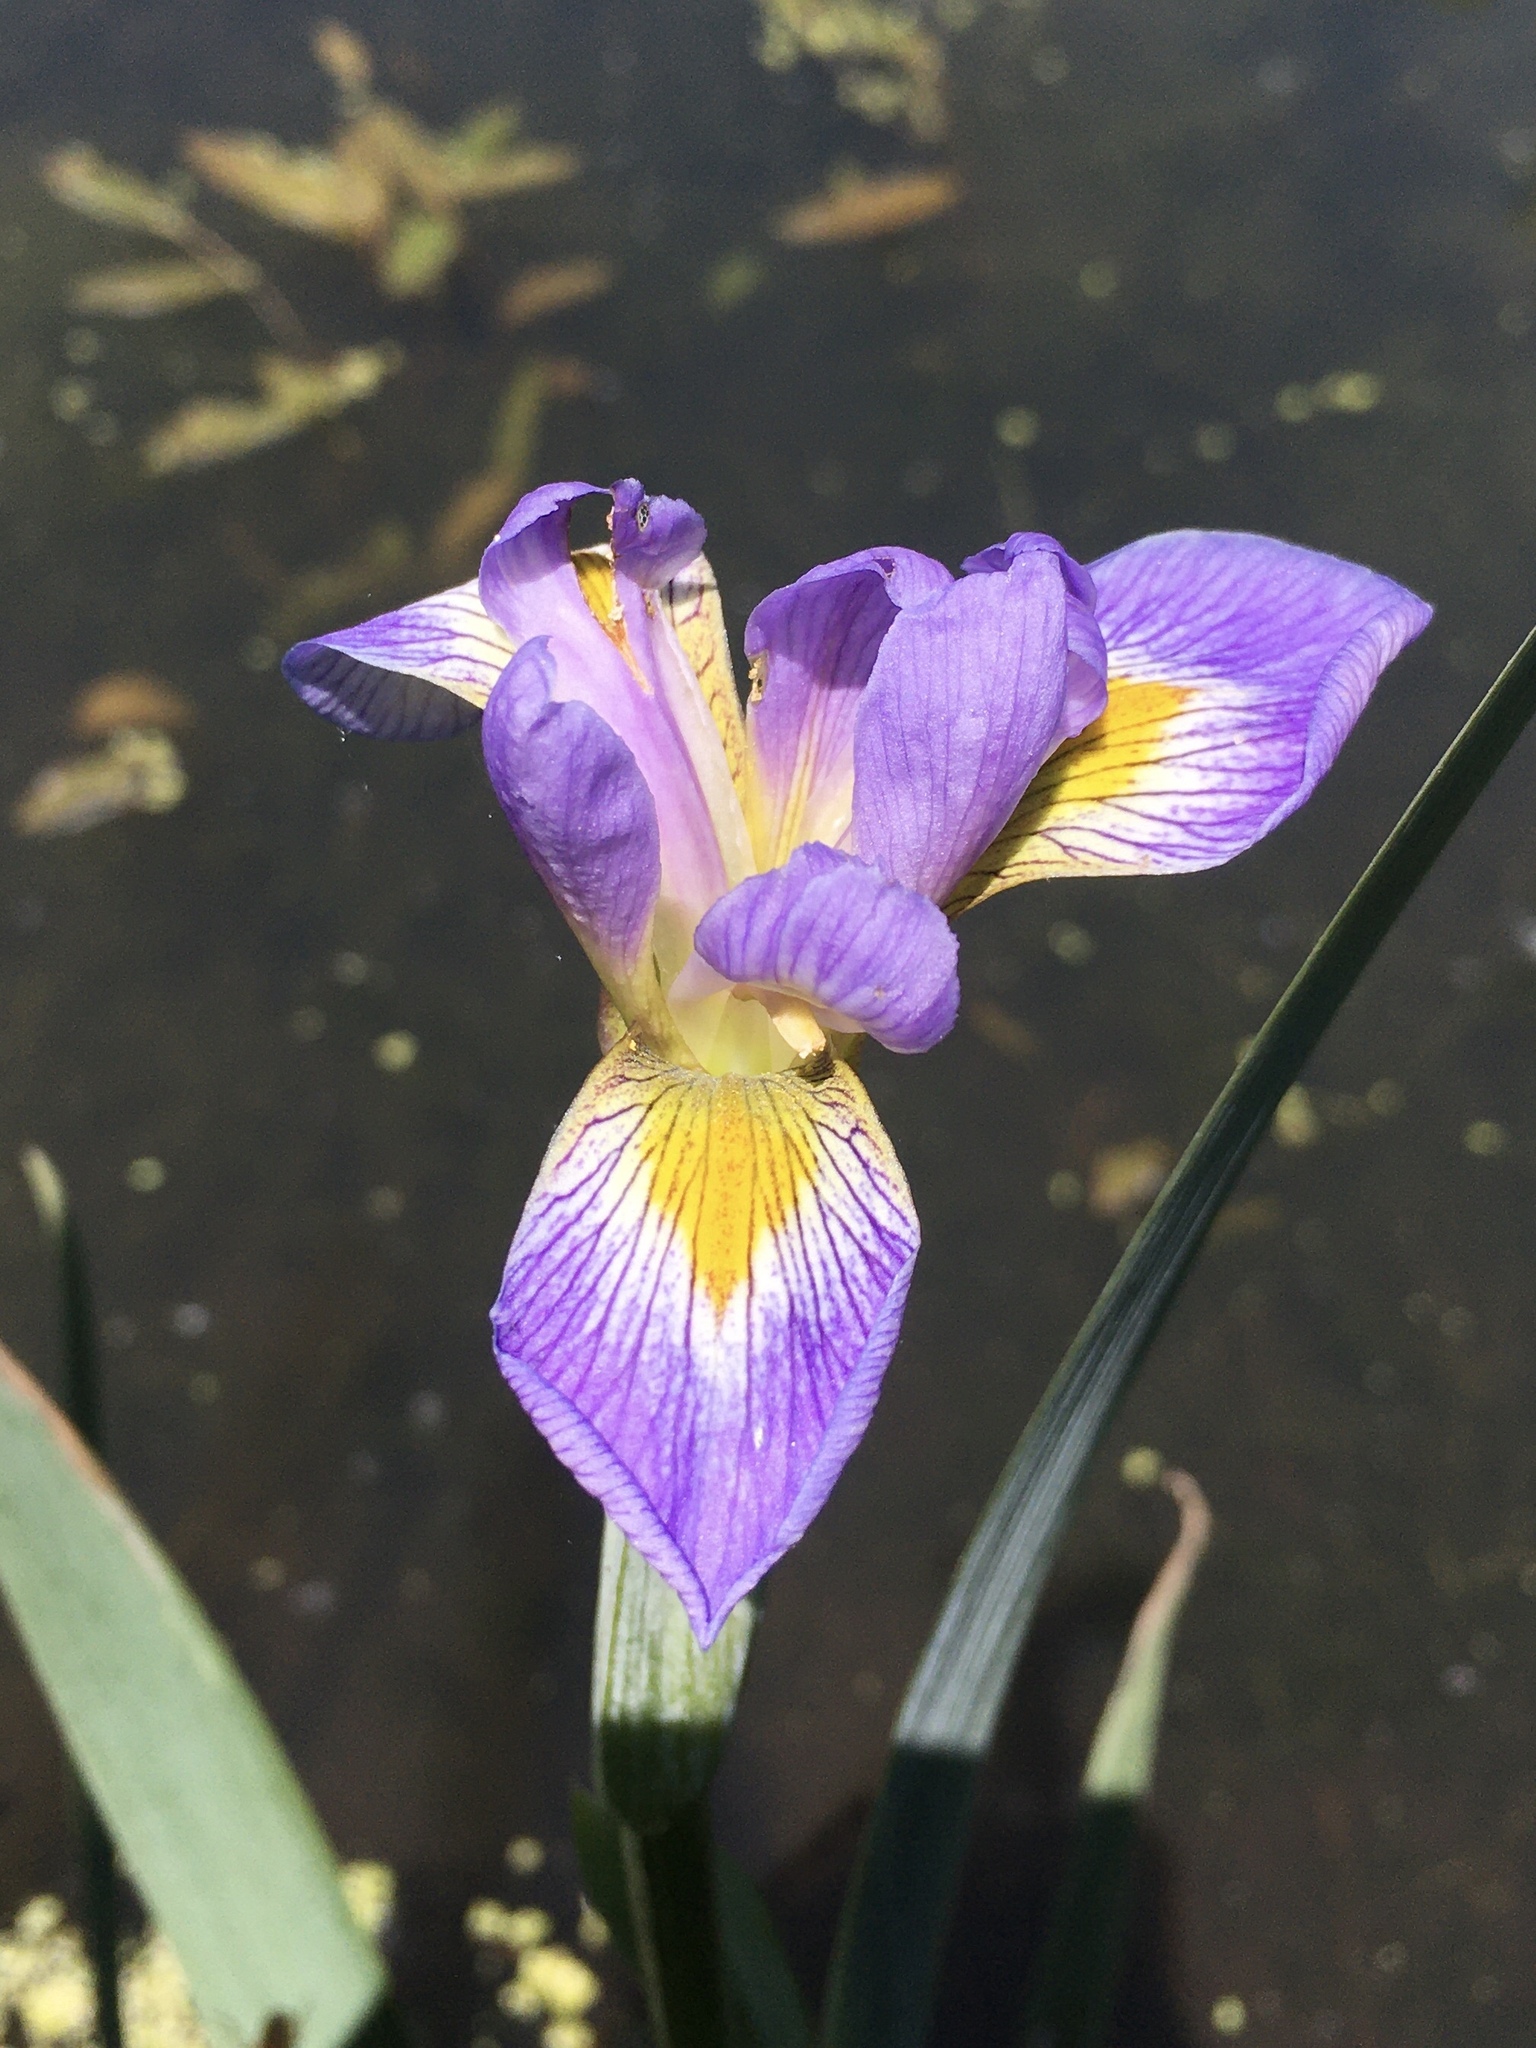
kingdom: Plantae
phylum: Tracheophyta
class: Liliopsida
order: Asparagales
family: Iridaceae
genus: Iris
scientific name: Iris virginica
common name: Southern blue flag
